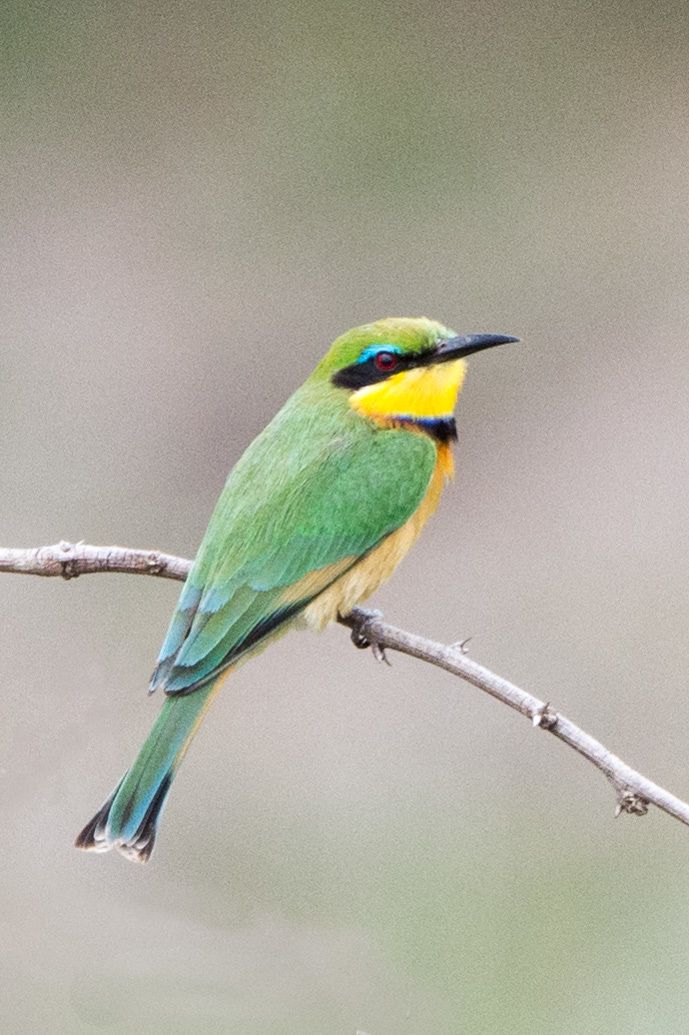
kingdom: Animalia
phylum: Chordata
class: Aves
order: Coraciiformes
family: Meropidae
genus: Merops
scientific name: Merops pusillus
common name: Little bee-eater
